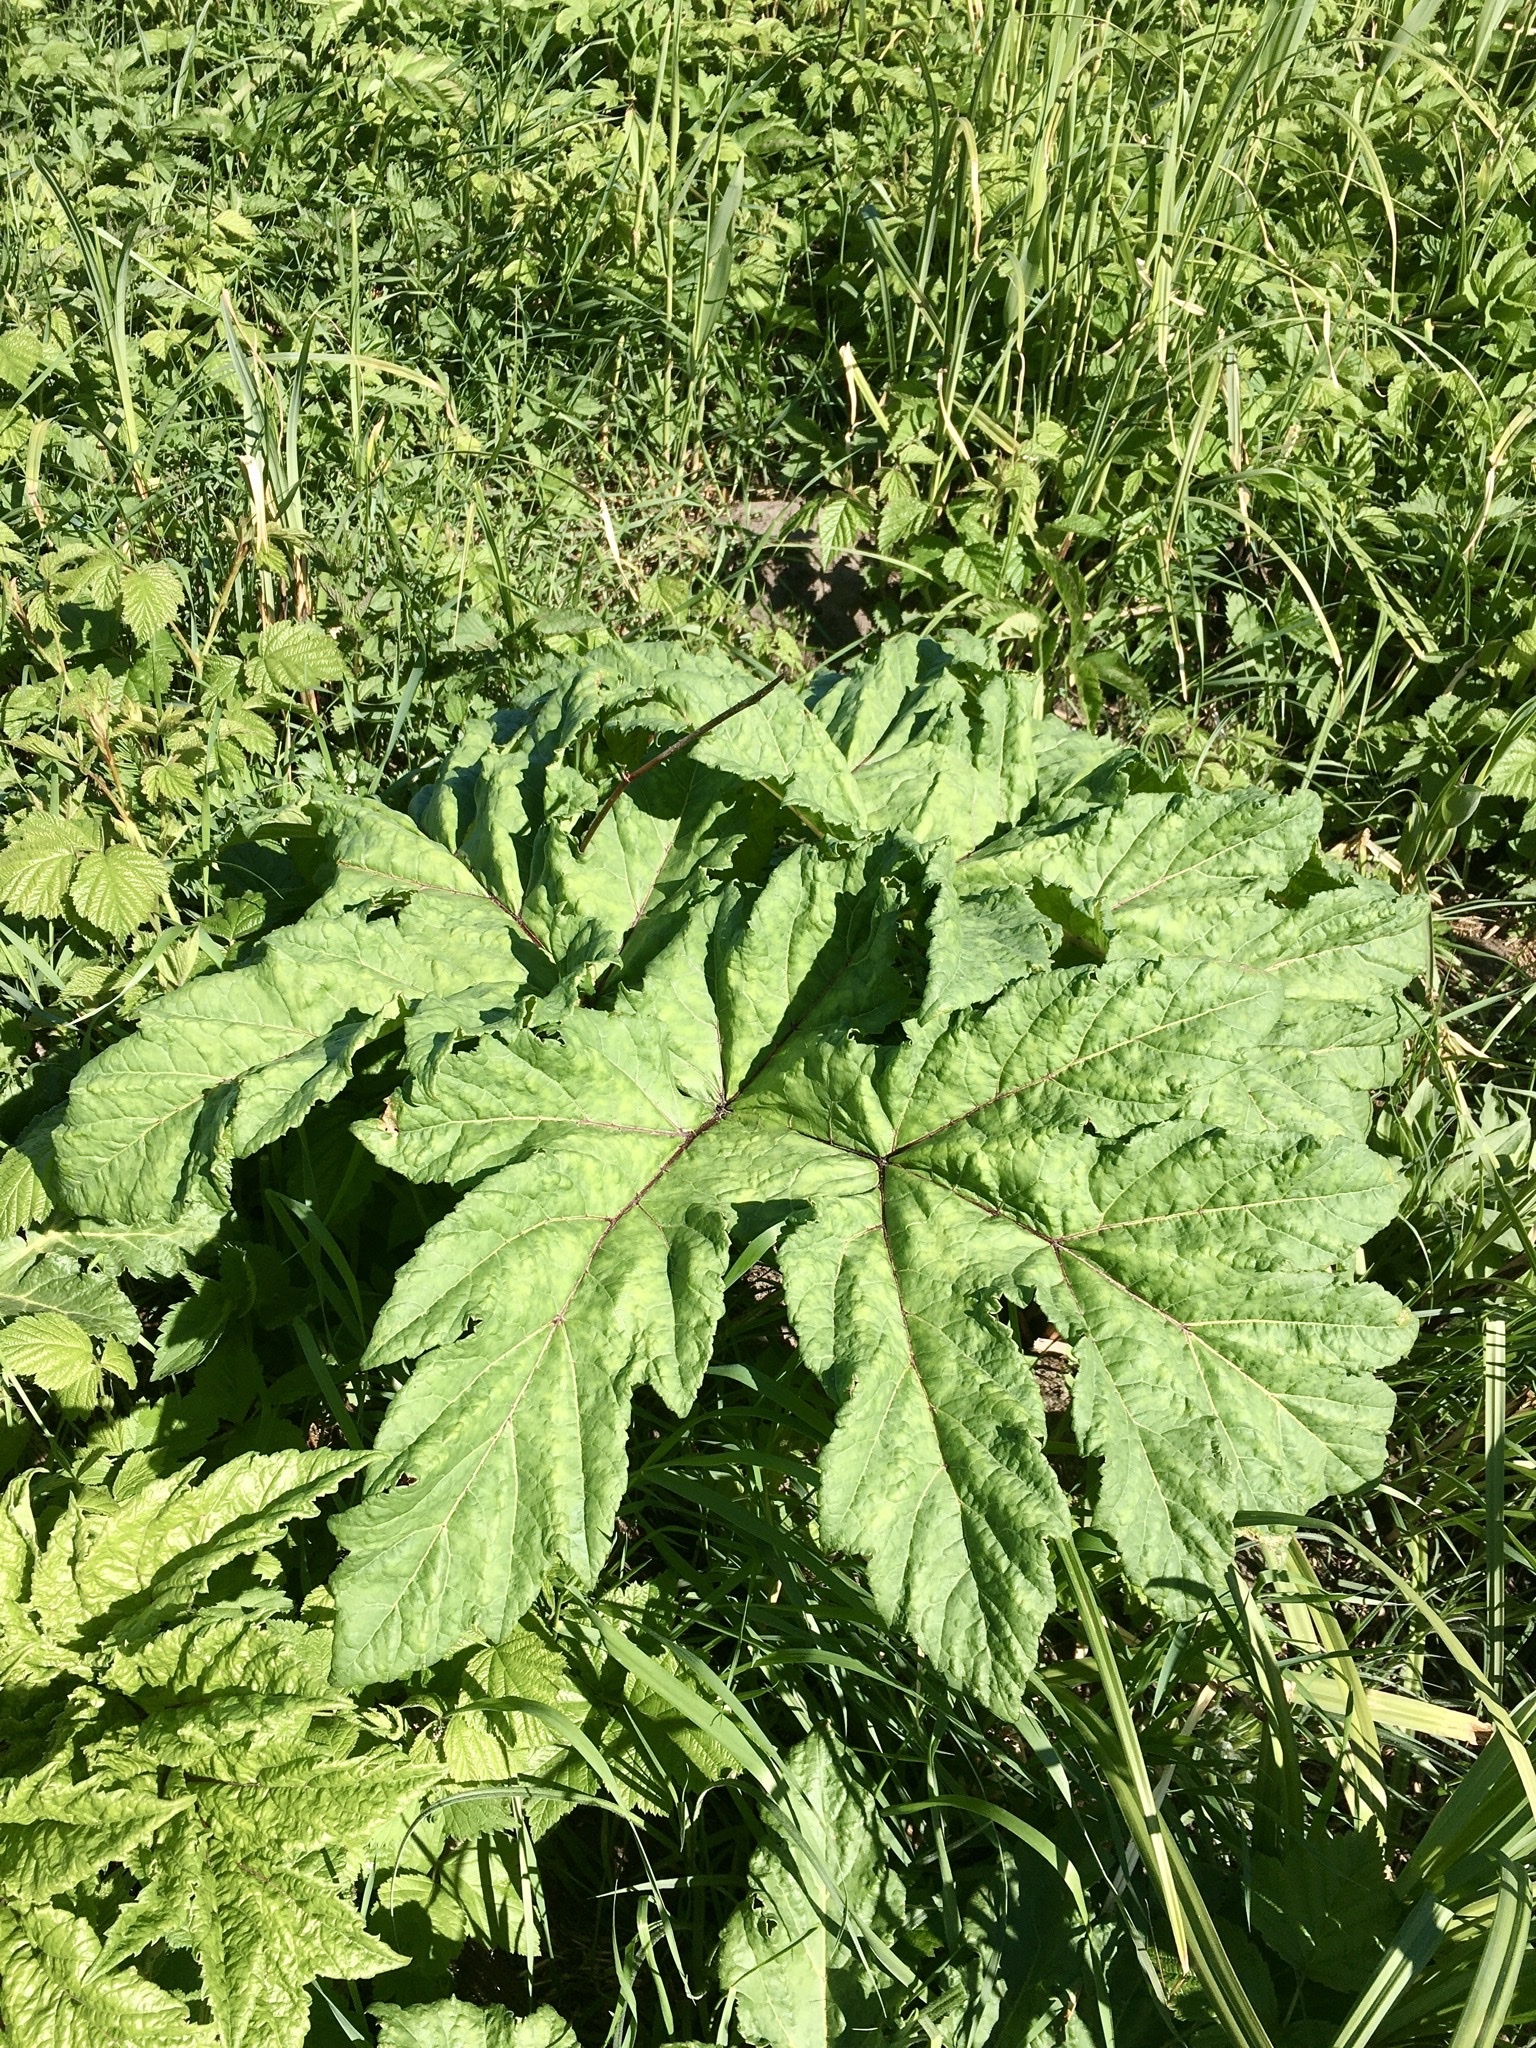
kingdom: Plantae
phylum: Tracheophyta
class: Magnoliopsida
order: Apiales
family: Apiaceae
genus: Heracleum
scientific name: Heracleum sosnowskyi
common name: Sosnowsky's hogweed
